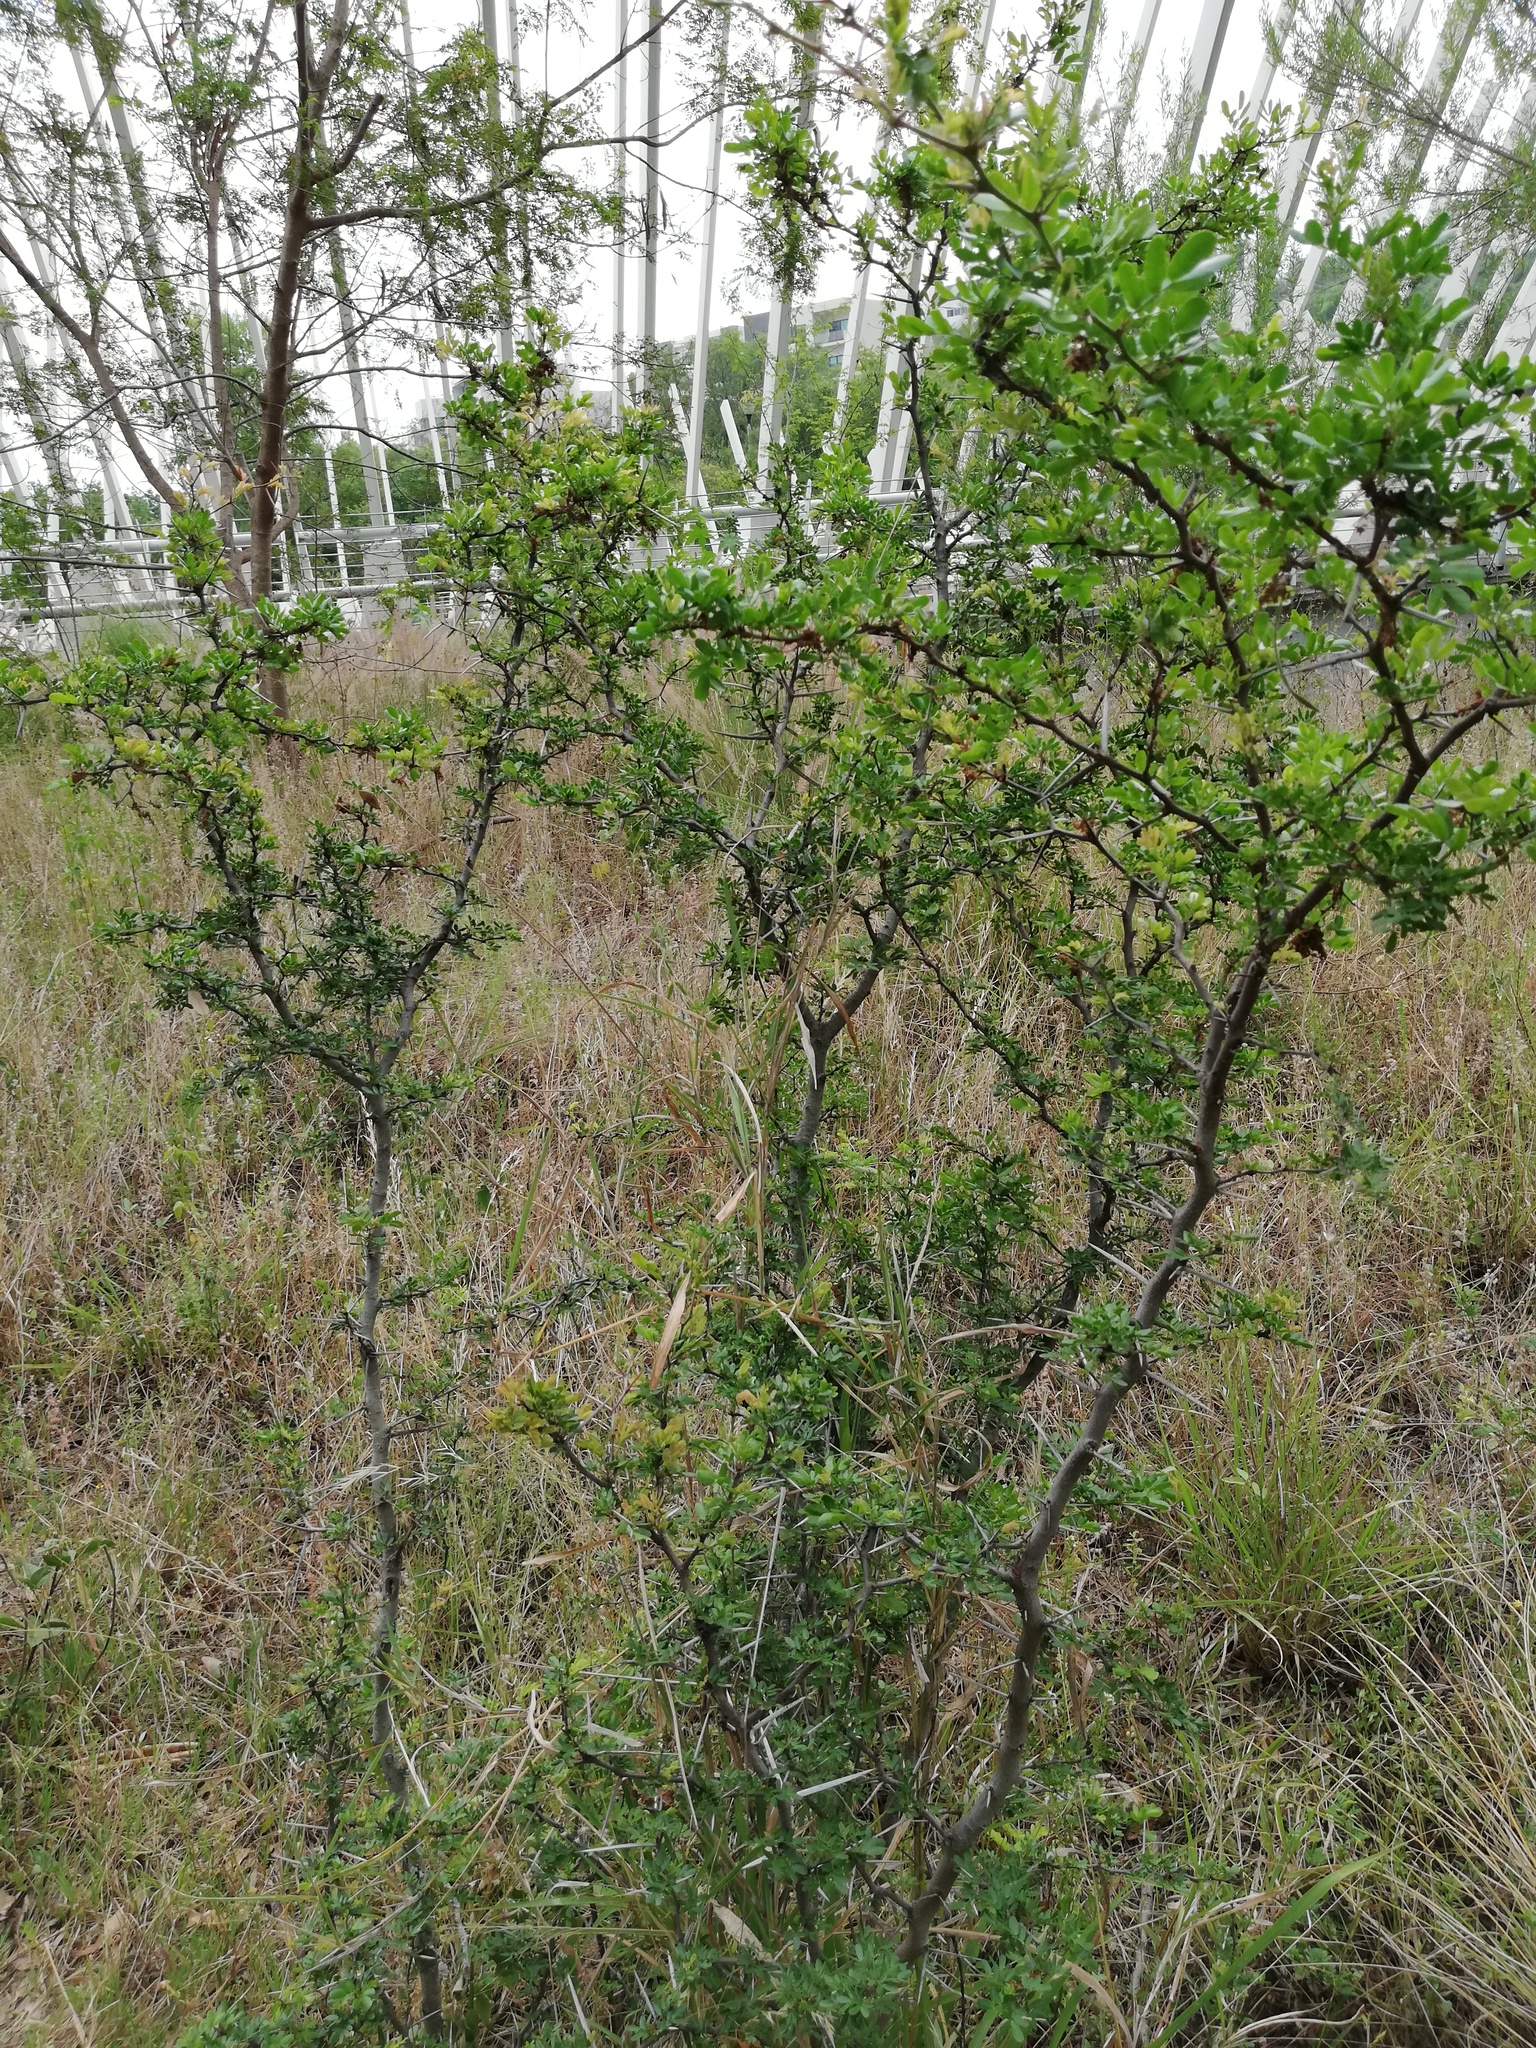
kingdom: Plantae
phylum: Tracheophyta
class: Magnoliopsida
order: Fabales
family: Fabaceae
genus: Vachellia
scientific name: Vachellia rigidula
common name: Blackbrush
